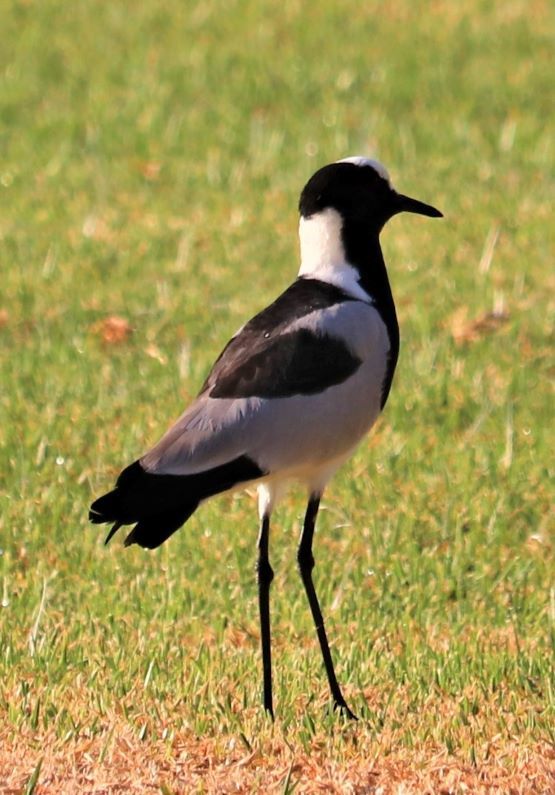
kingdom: Animalia
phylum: Chordata
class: Aves
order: Charadriiformes
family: Charadriidae
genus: Vanellus
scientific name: Vanellus armatus
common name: Blacksmith lapwing
